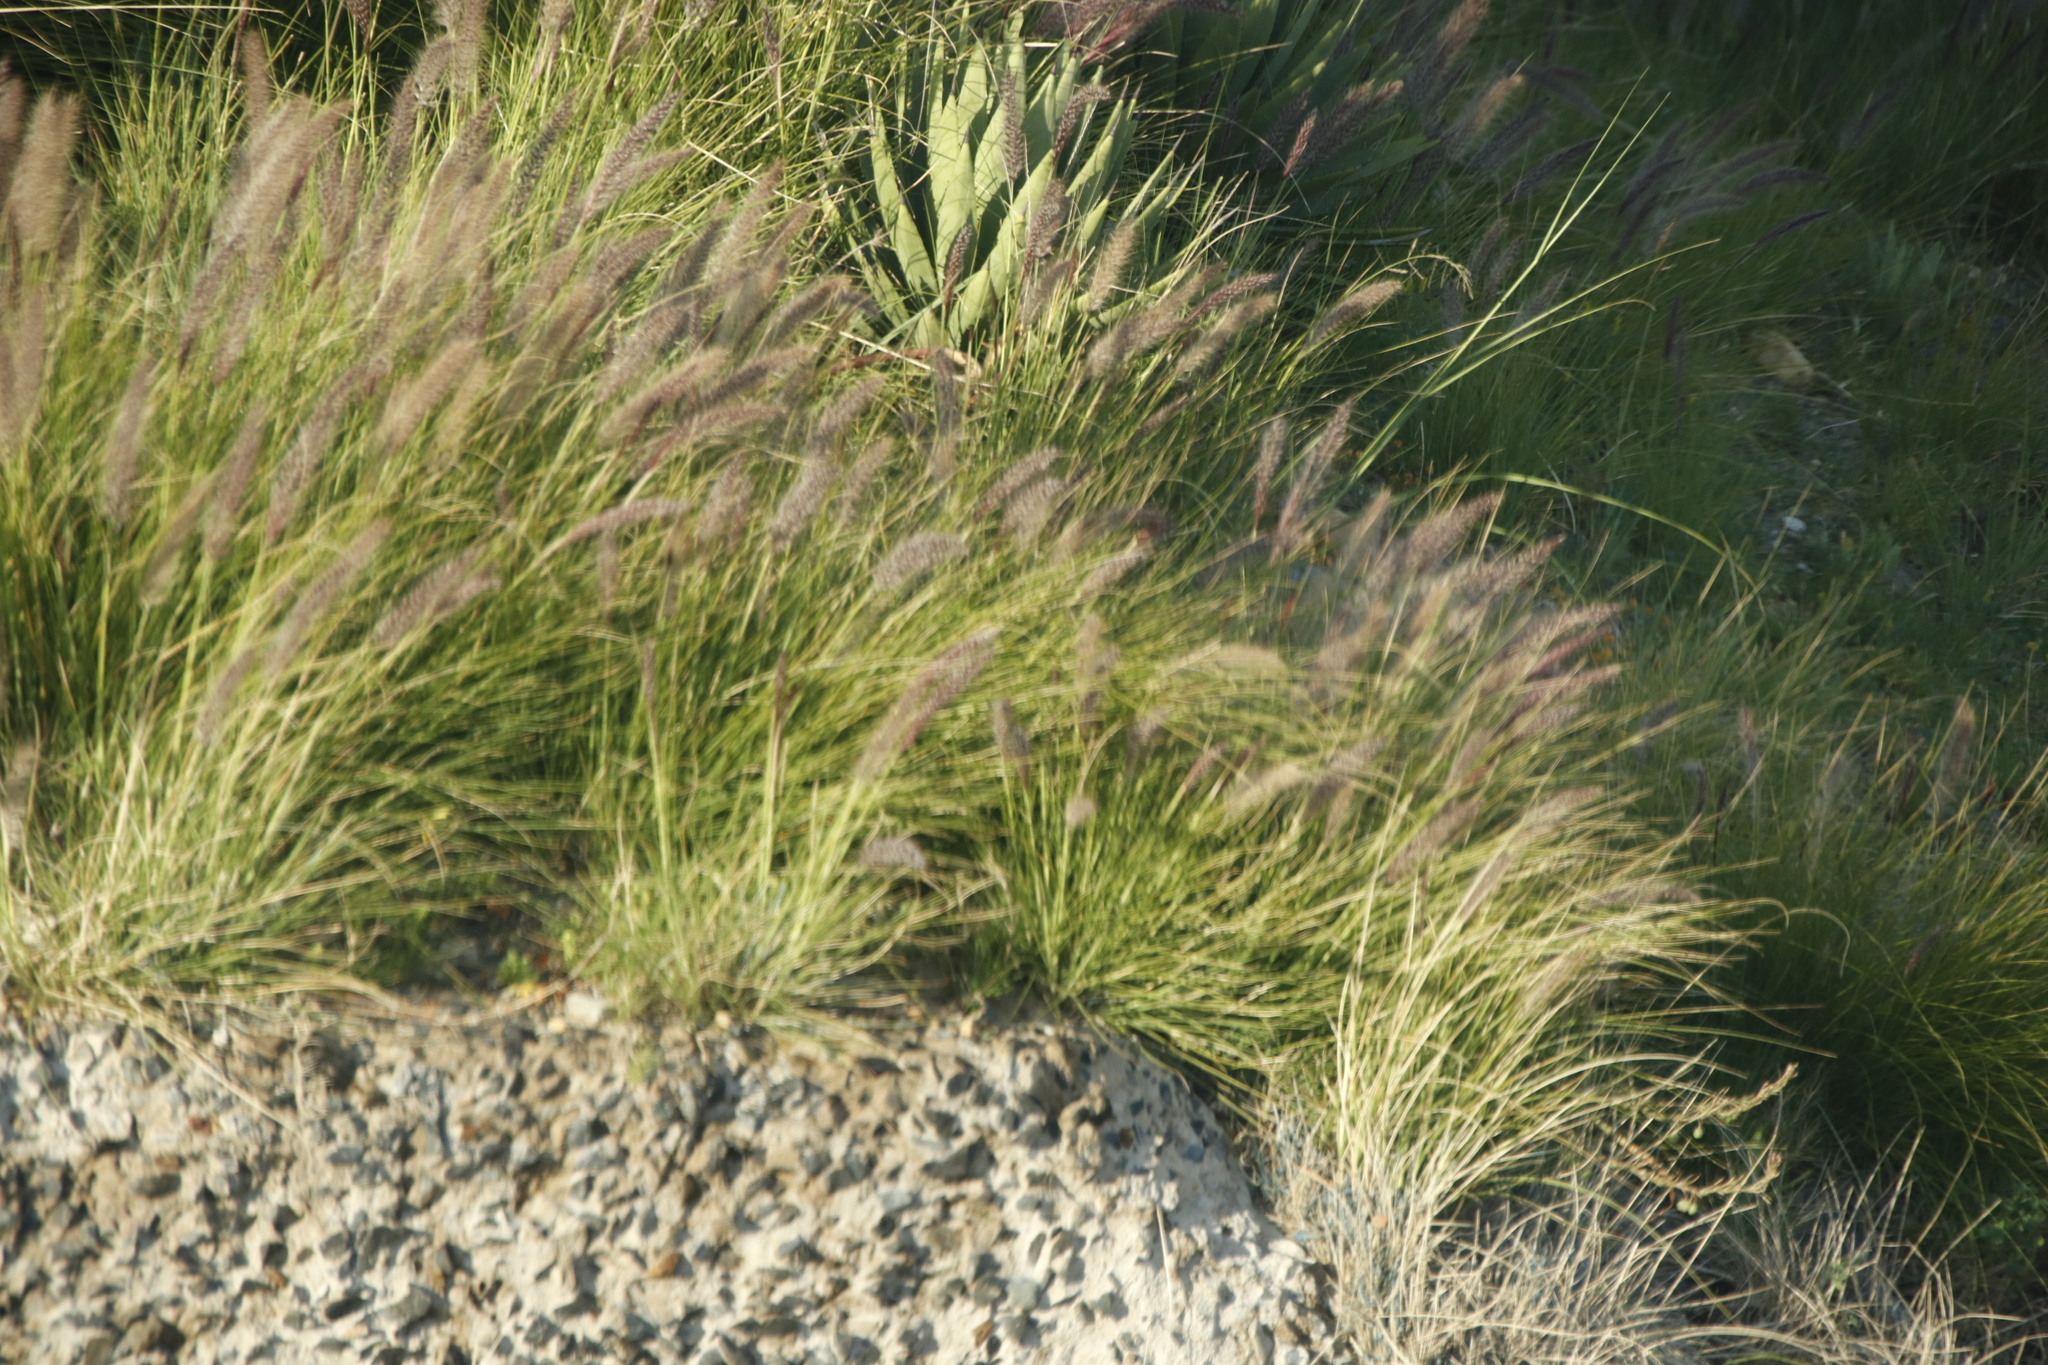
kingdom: Plantae
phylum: Tracheophyta
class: Liliopsida
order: Poales
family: Poaceae
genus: Cenchrus
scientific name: Cenchrus setaceus
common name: Crimson fountaingrass
